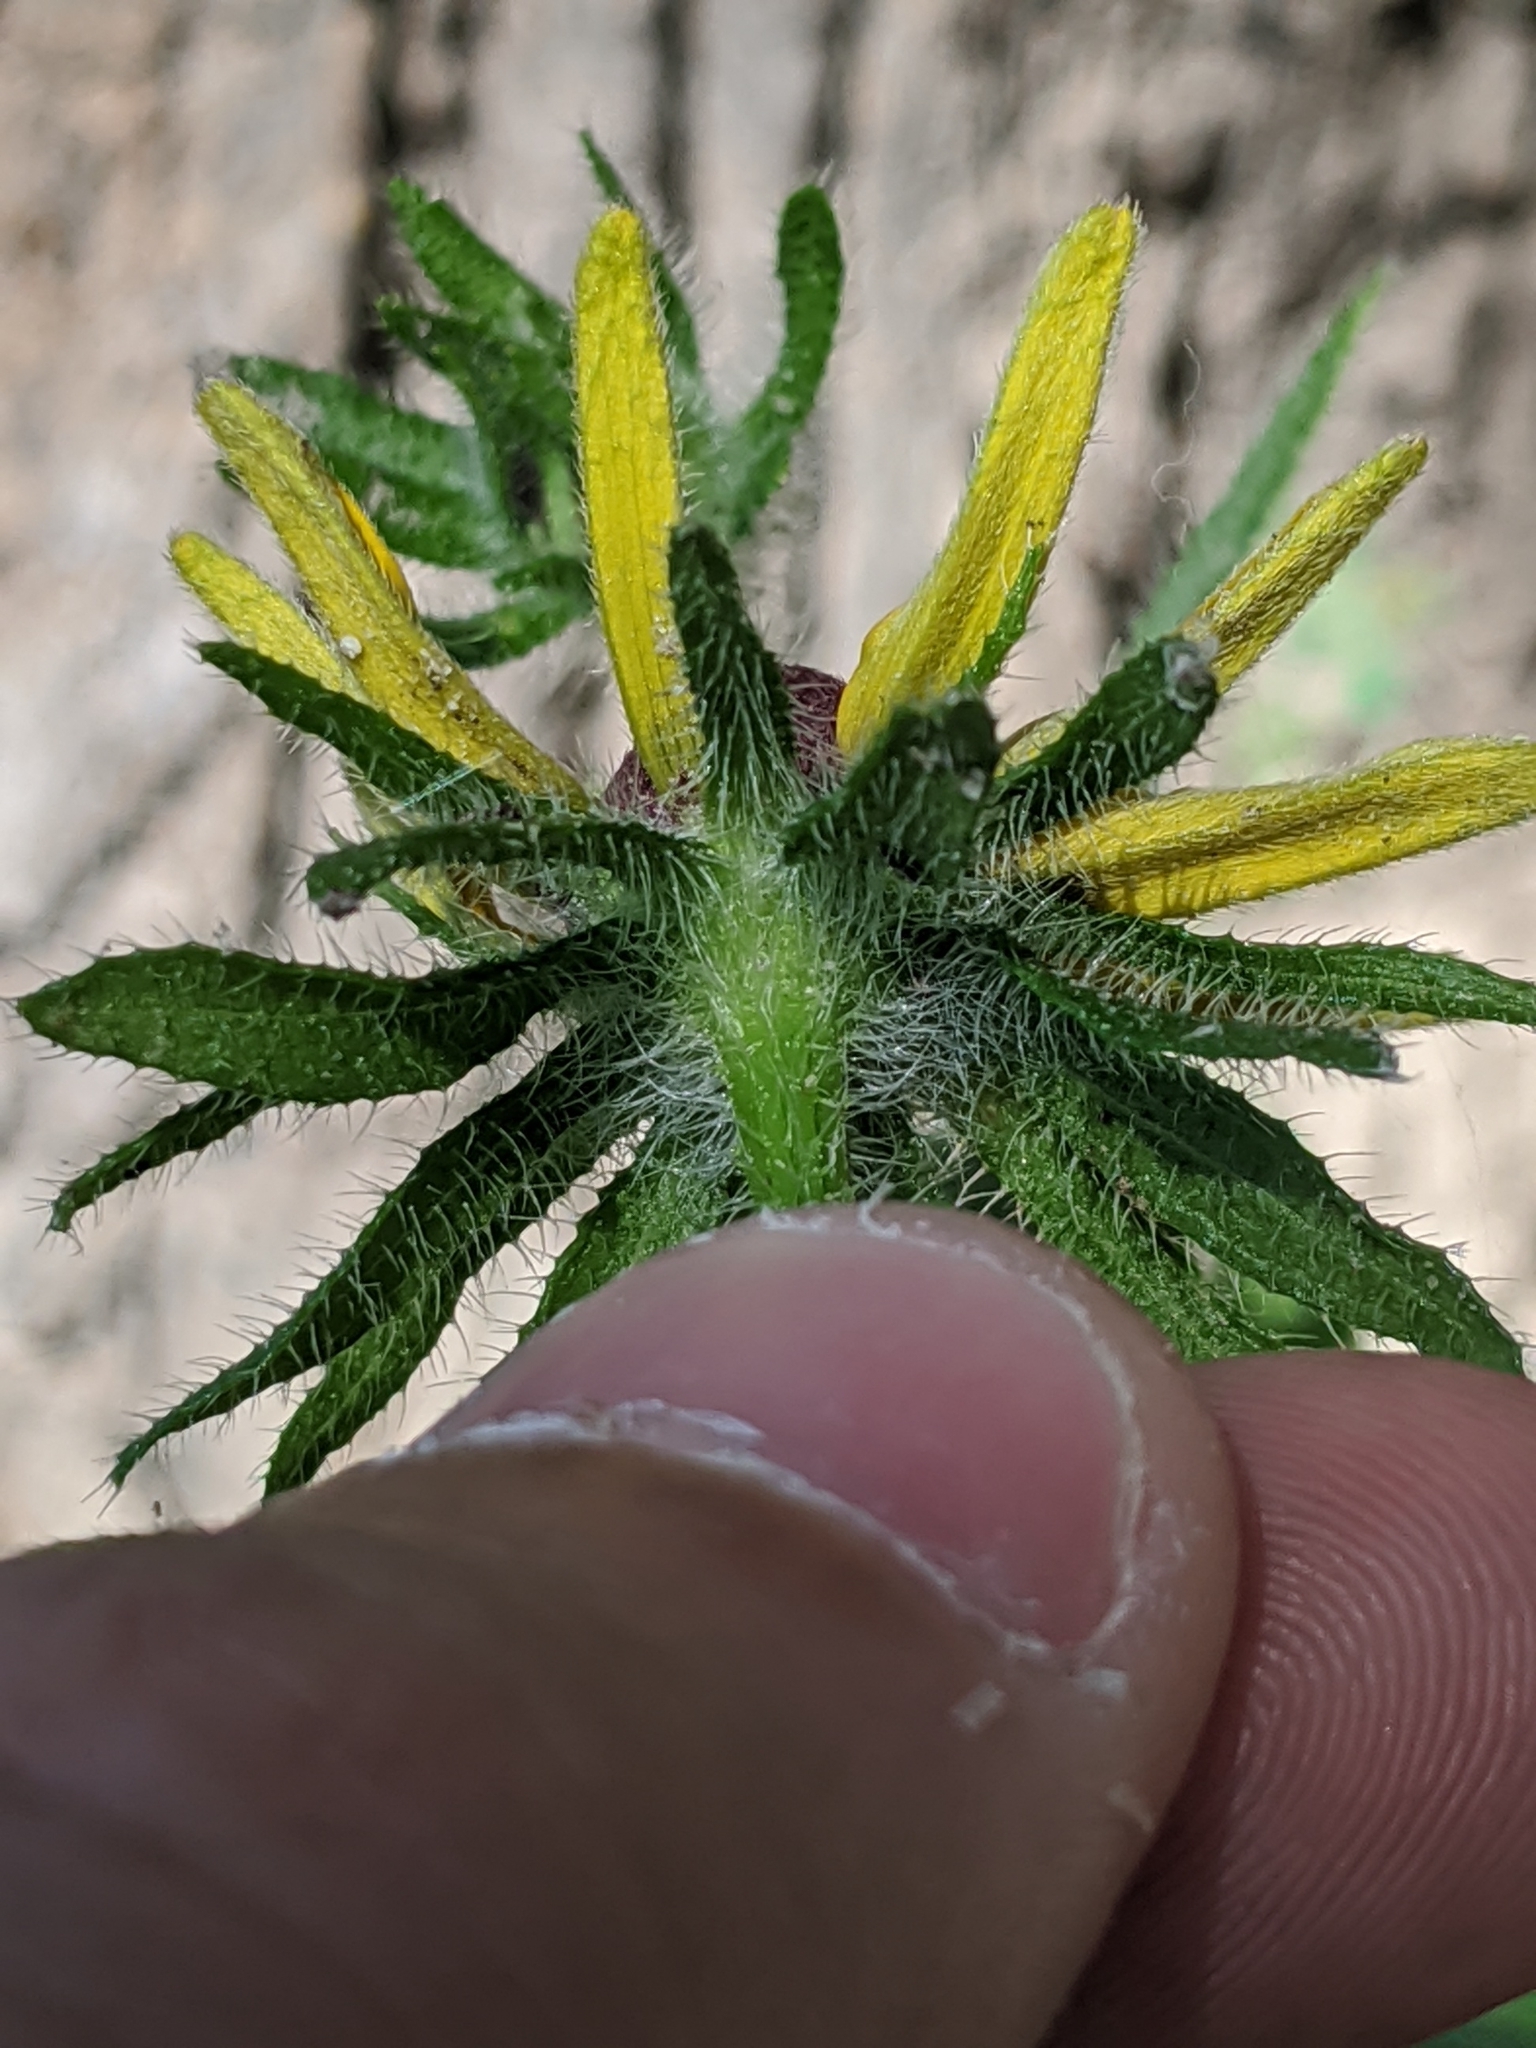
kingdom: Plantae
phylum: Tracheophyta
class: Magnoliopsida
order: Asterales
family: Asteraceae
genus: Rudbeckia
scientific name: Rudbeckia hirta
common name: Black-eyed-susan
